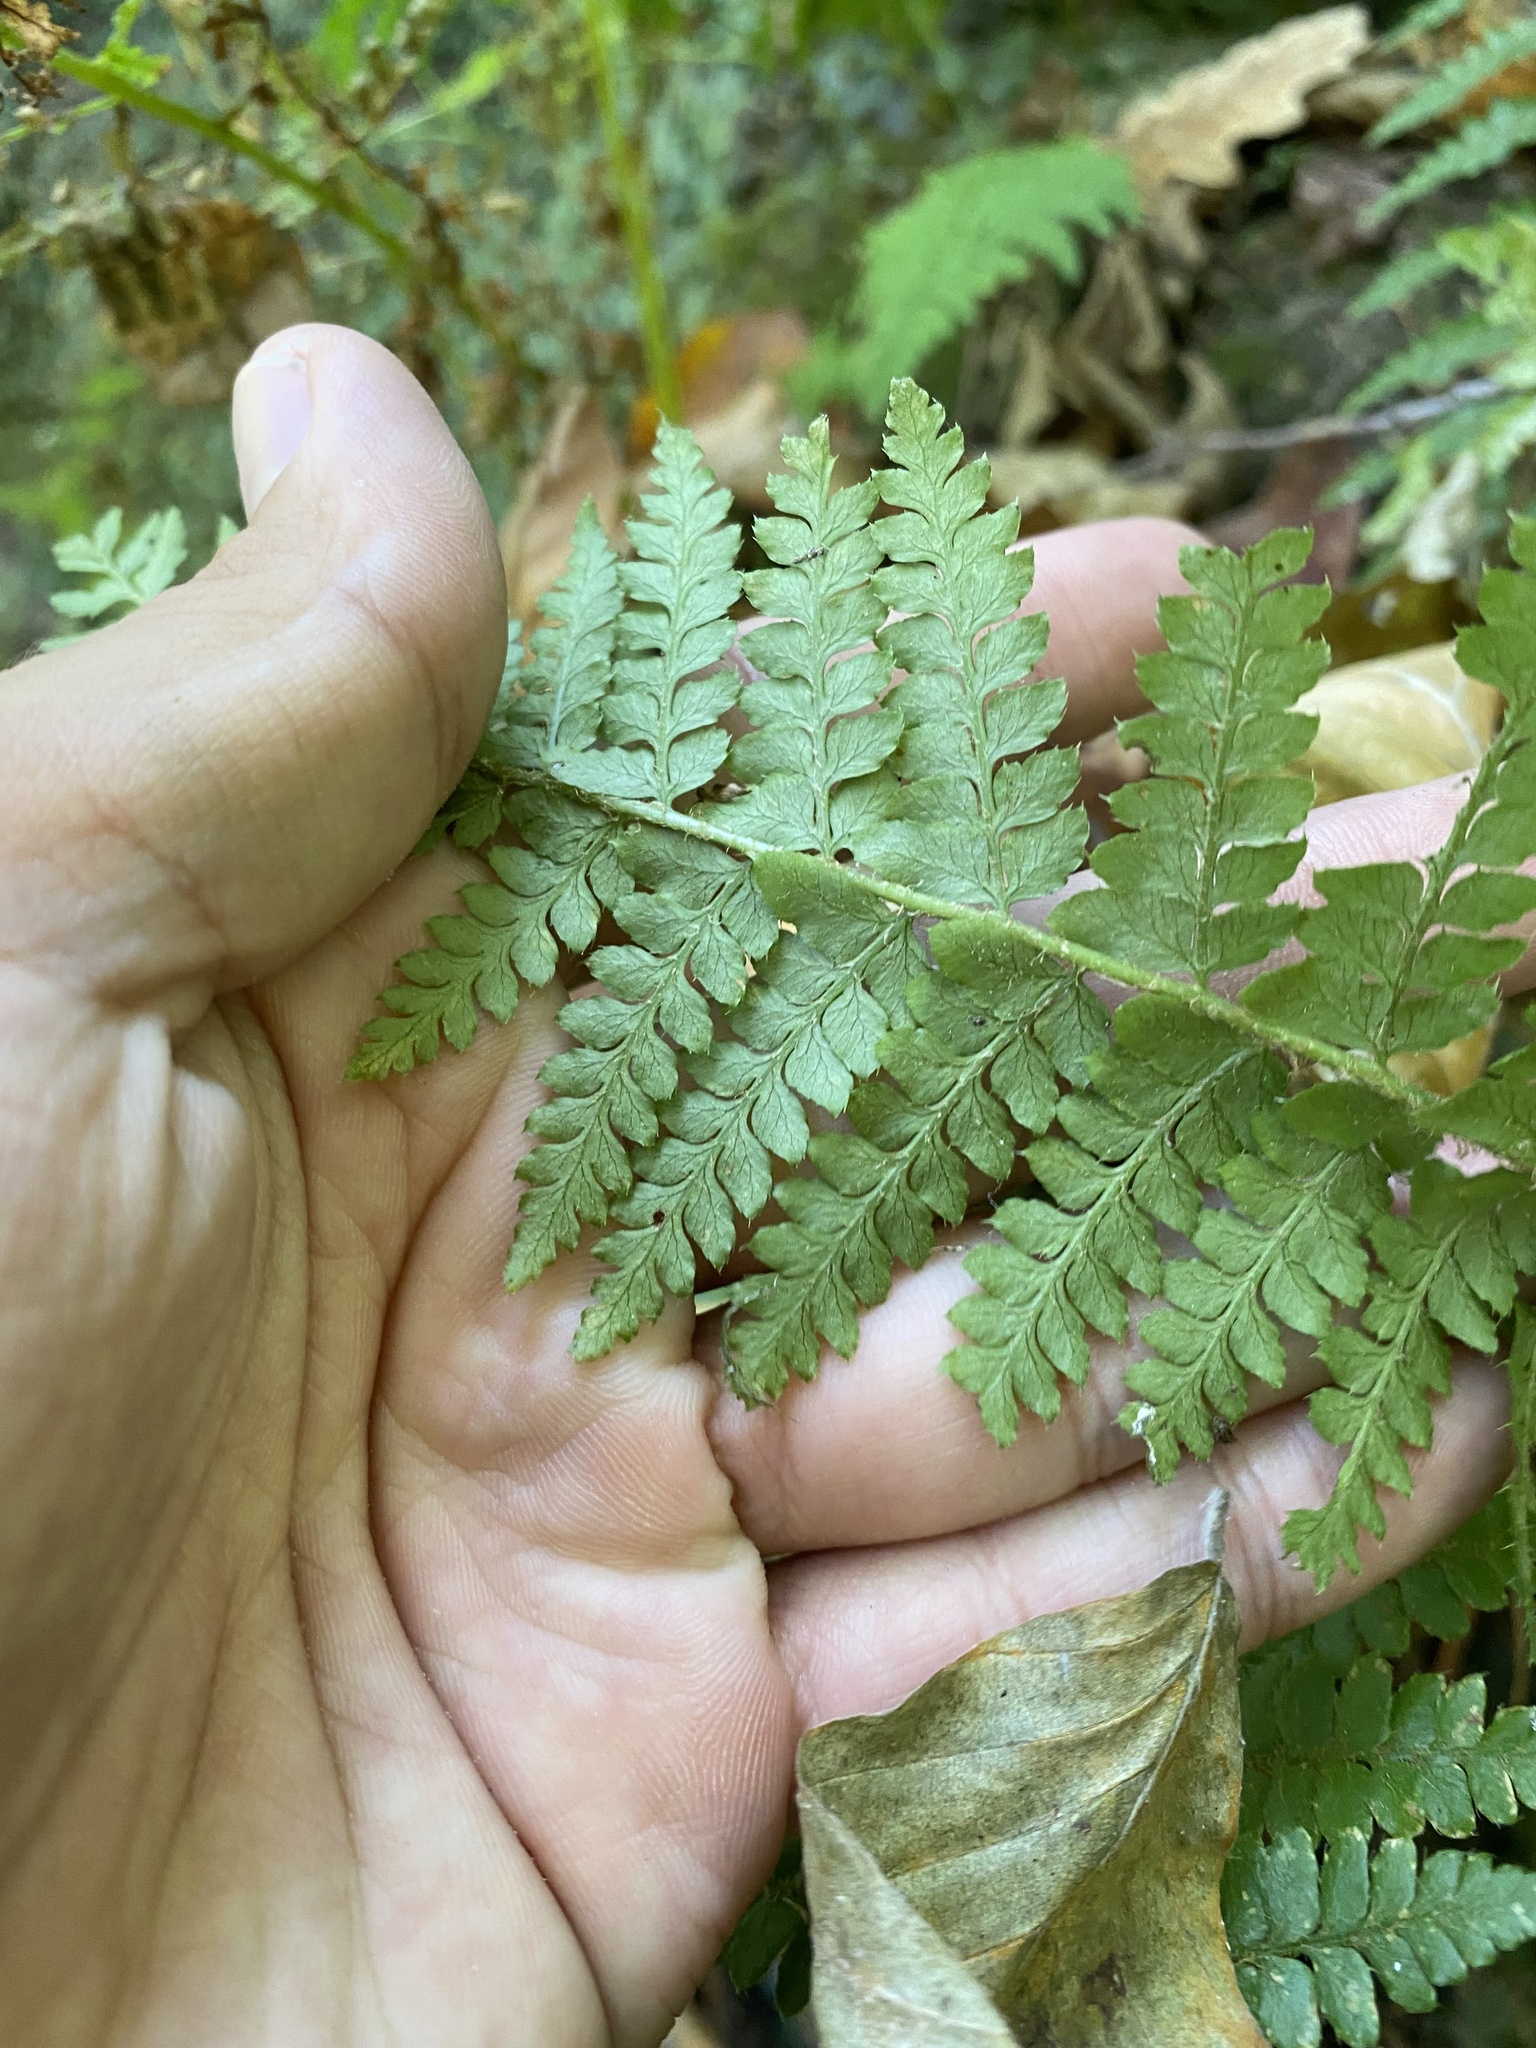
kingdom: Plantae
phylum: Tracheophyta
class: Polypodiopsida
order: Polypodiales
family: Dryopteridaceae
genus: Polystichum
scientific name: Polystichum braunii
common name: Braun's holly fern
